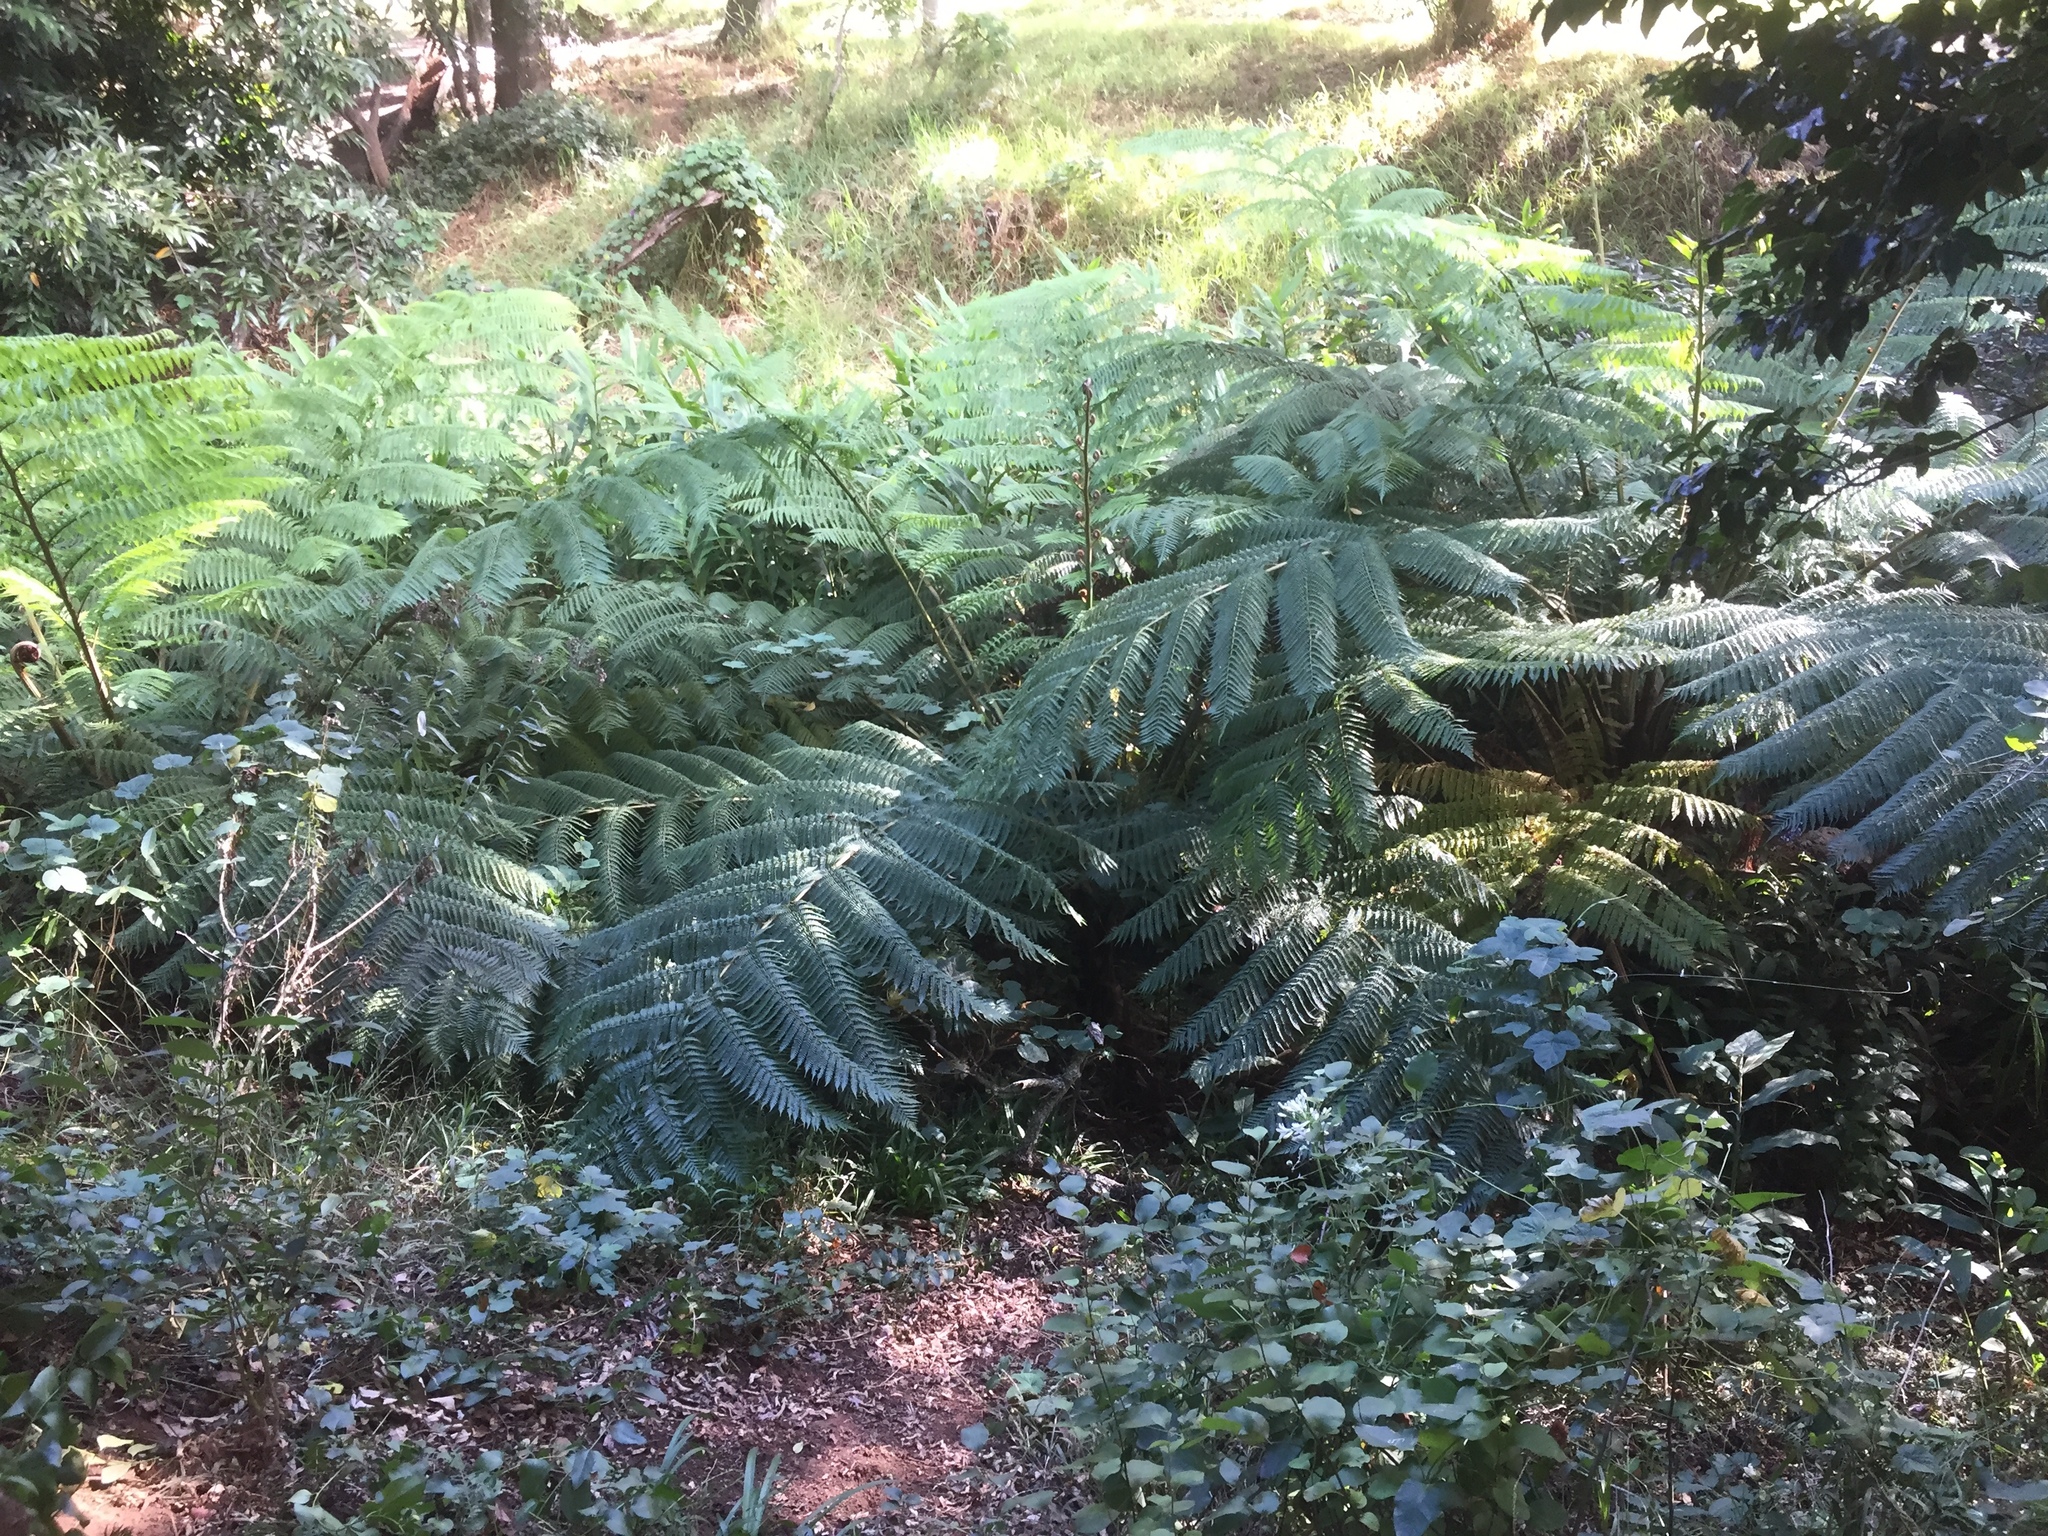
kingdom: Plantae
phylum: Tracheophyta
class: Polypodiopsida
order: Cyatheales
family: Cyatheaceae
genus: Sphaeropteris
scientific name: Sphaeropteris cooperi
